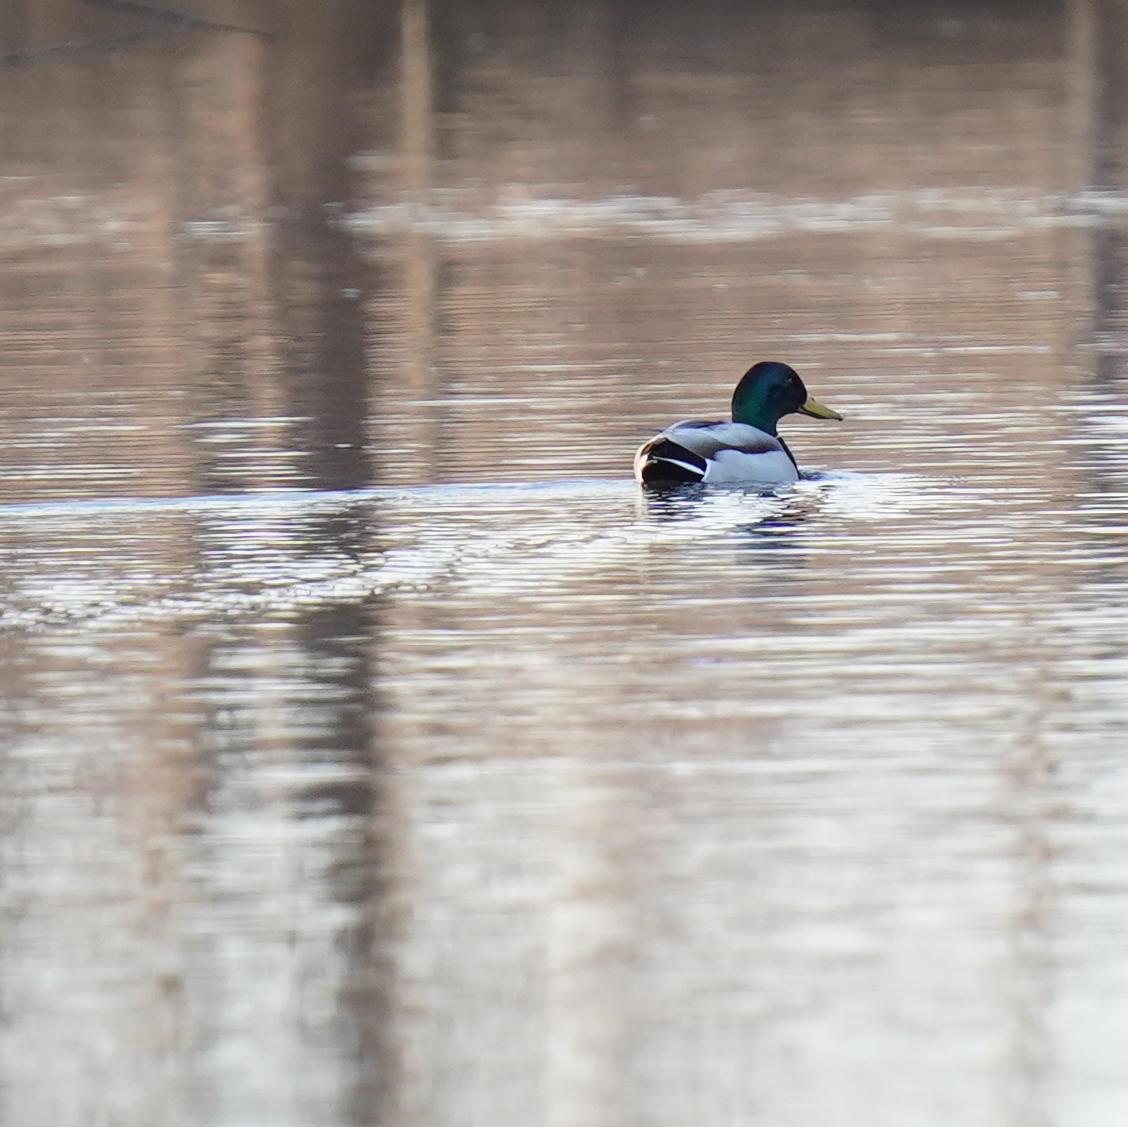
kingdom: Animalia
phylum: Chordata
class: Aves
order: Anseriformes
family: Anatidae
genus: Anas
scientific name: Anas platyrhynchos
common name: Mallard
